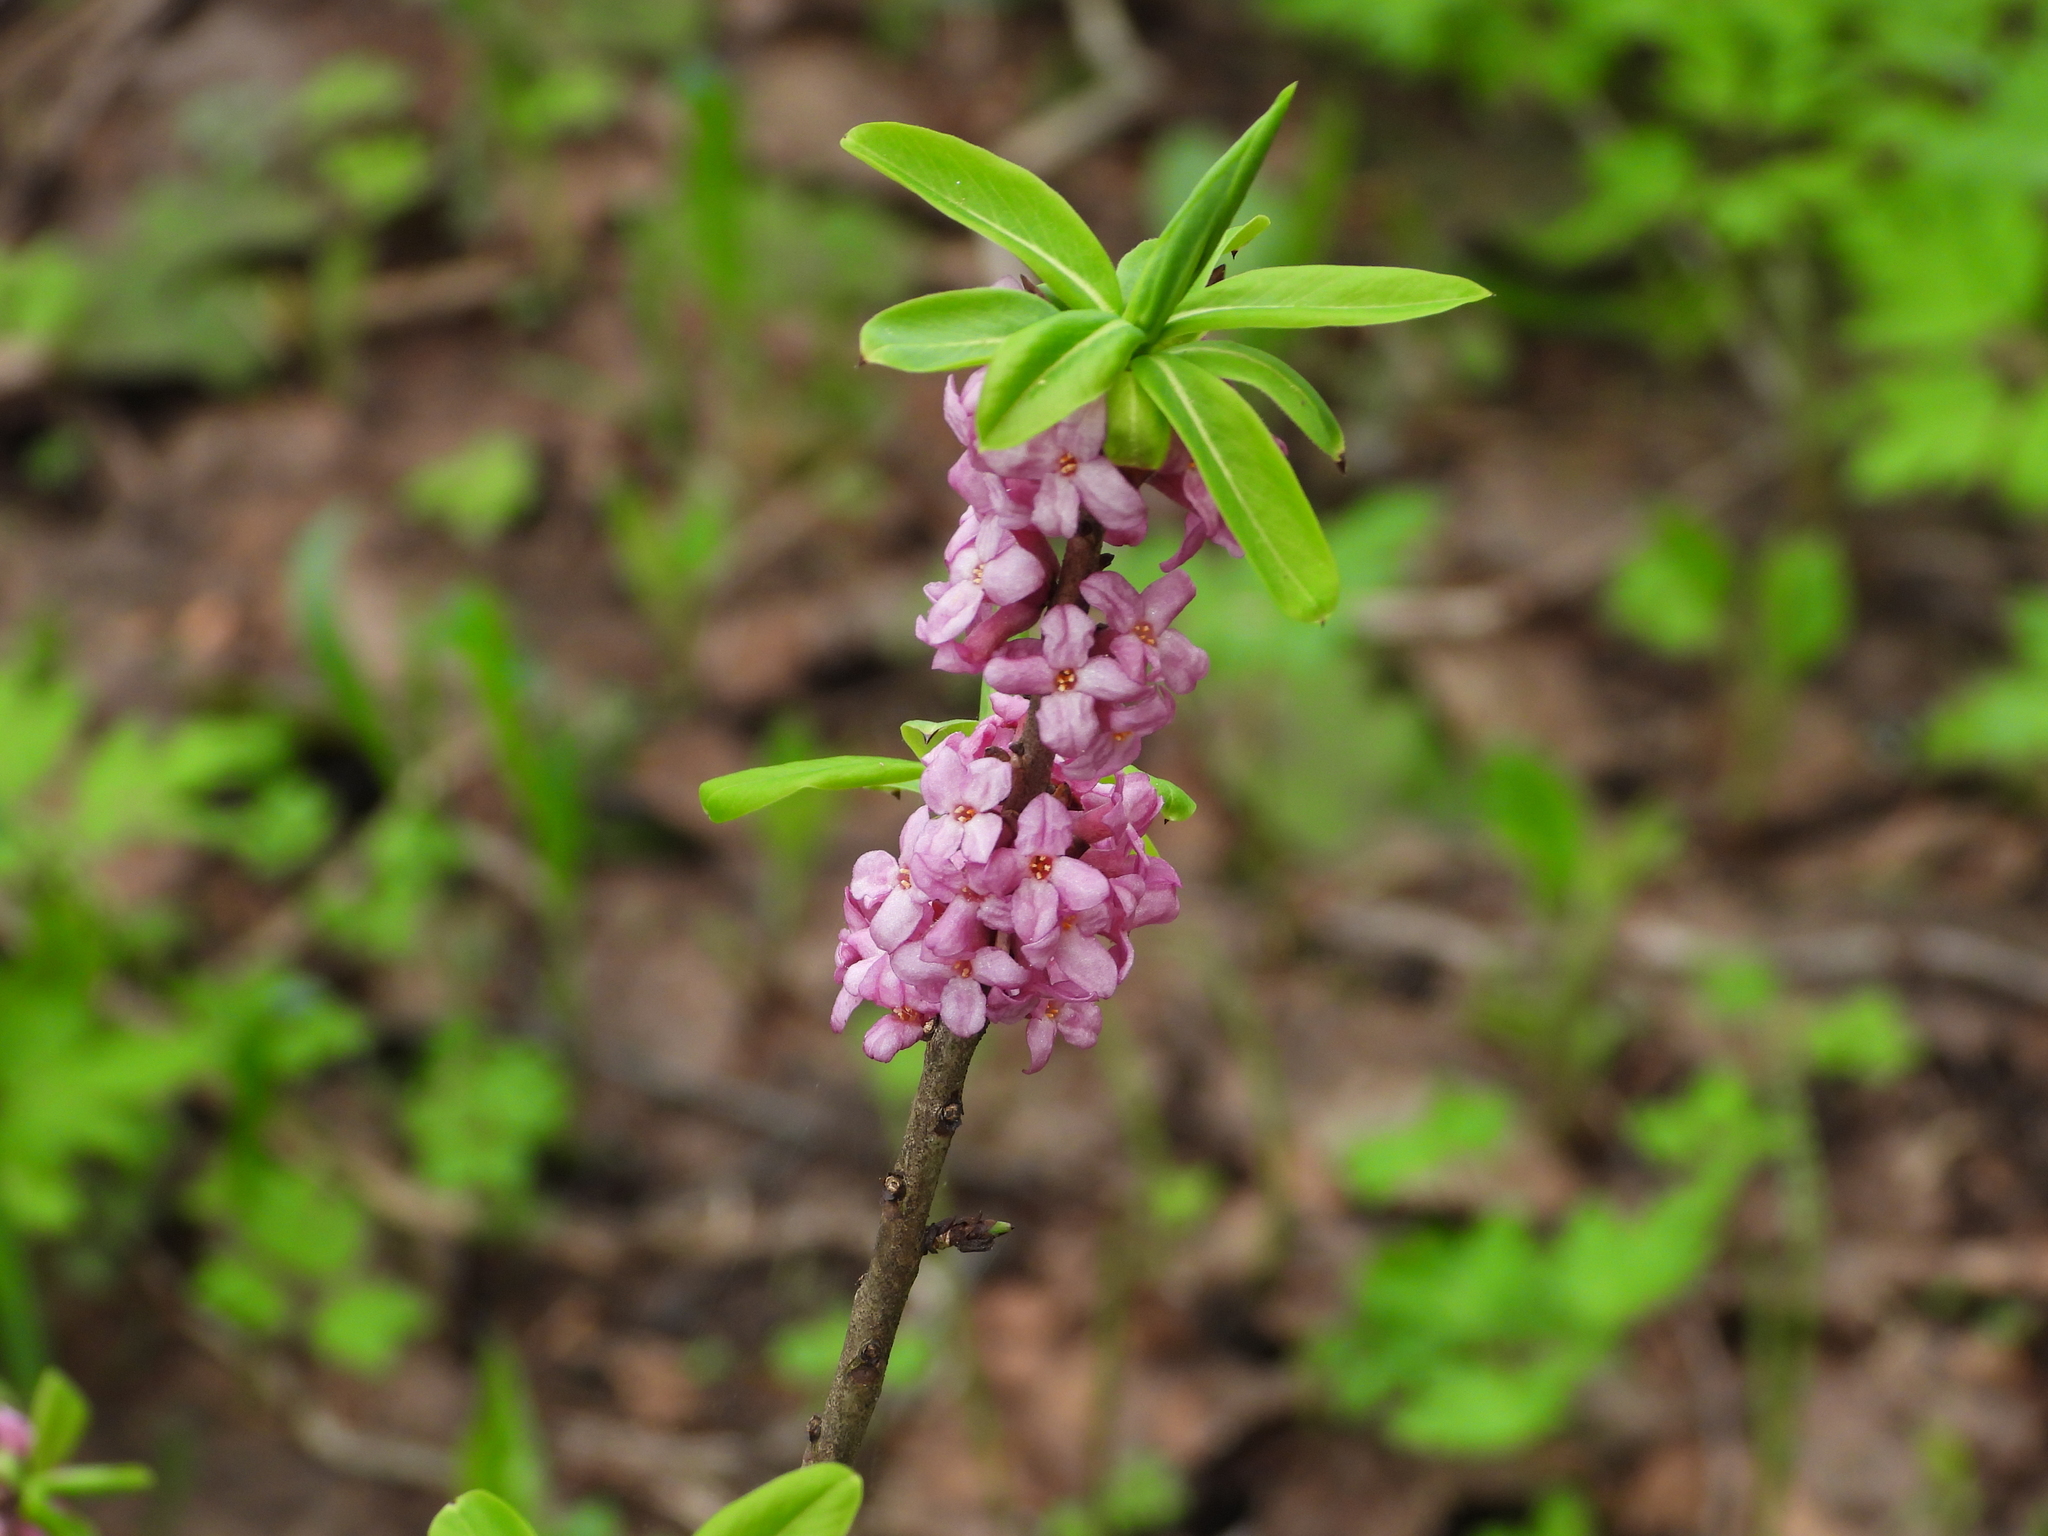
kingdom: Plantae
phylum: Tracheophyta
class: Magnoliopsida
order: Malvales
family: Thymelaeaceae
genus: Daphne
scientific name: Daphne mezereum
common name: Mezereon
